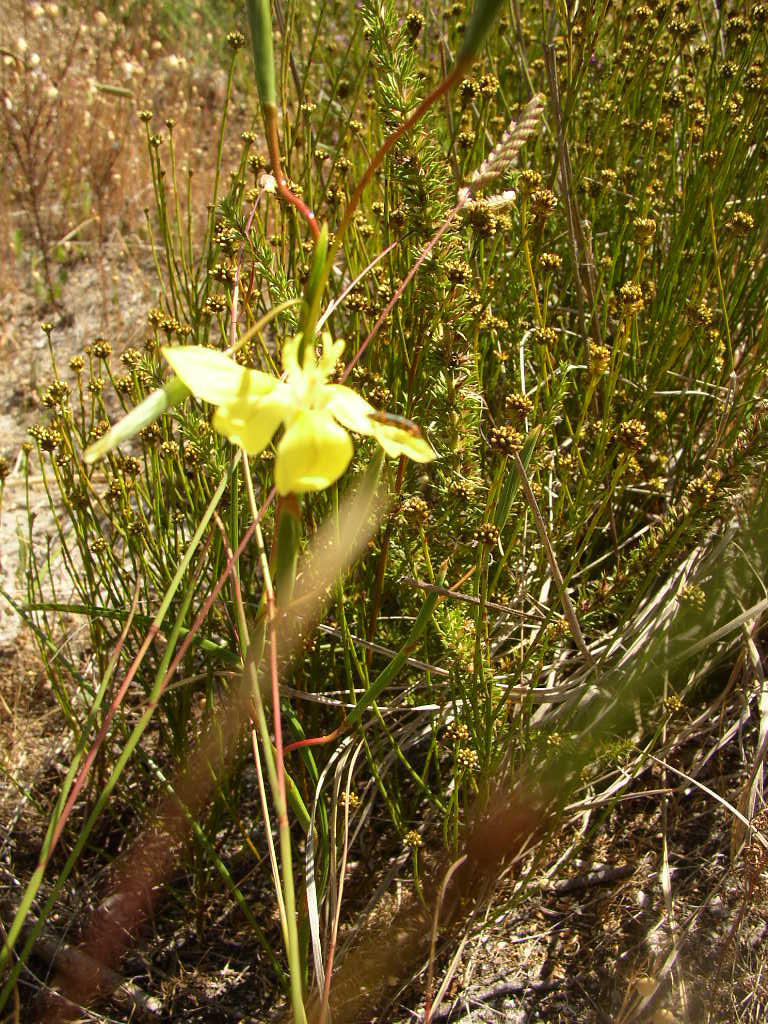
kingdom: Plantae
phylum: Tracheophyta
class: Liliopsida
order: Asparagales
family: Iridaceae
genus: Moraea
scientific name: Moraea bituminosa
